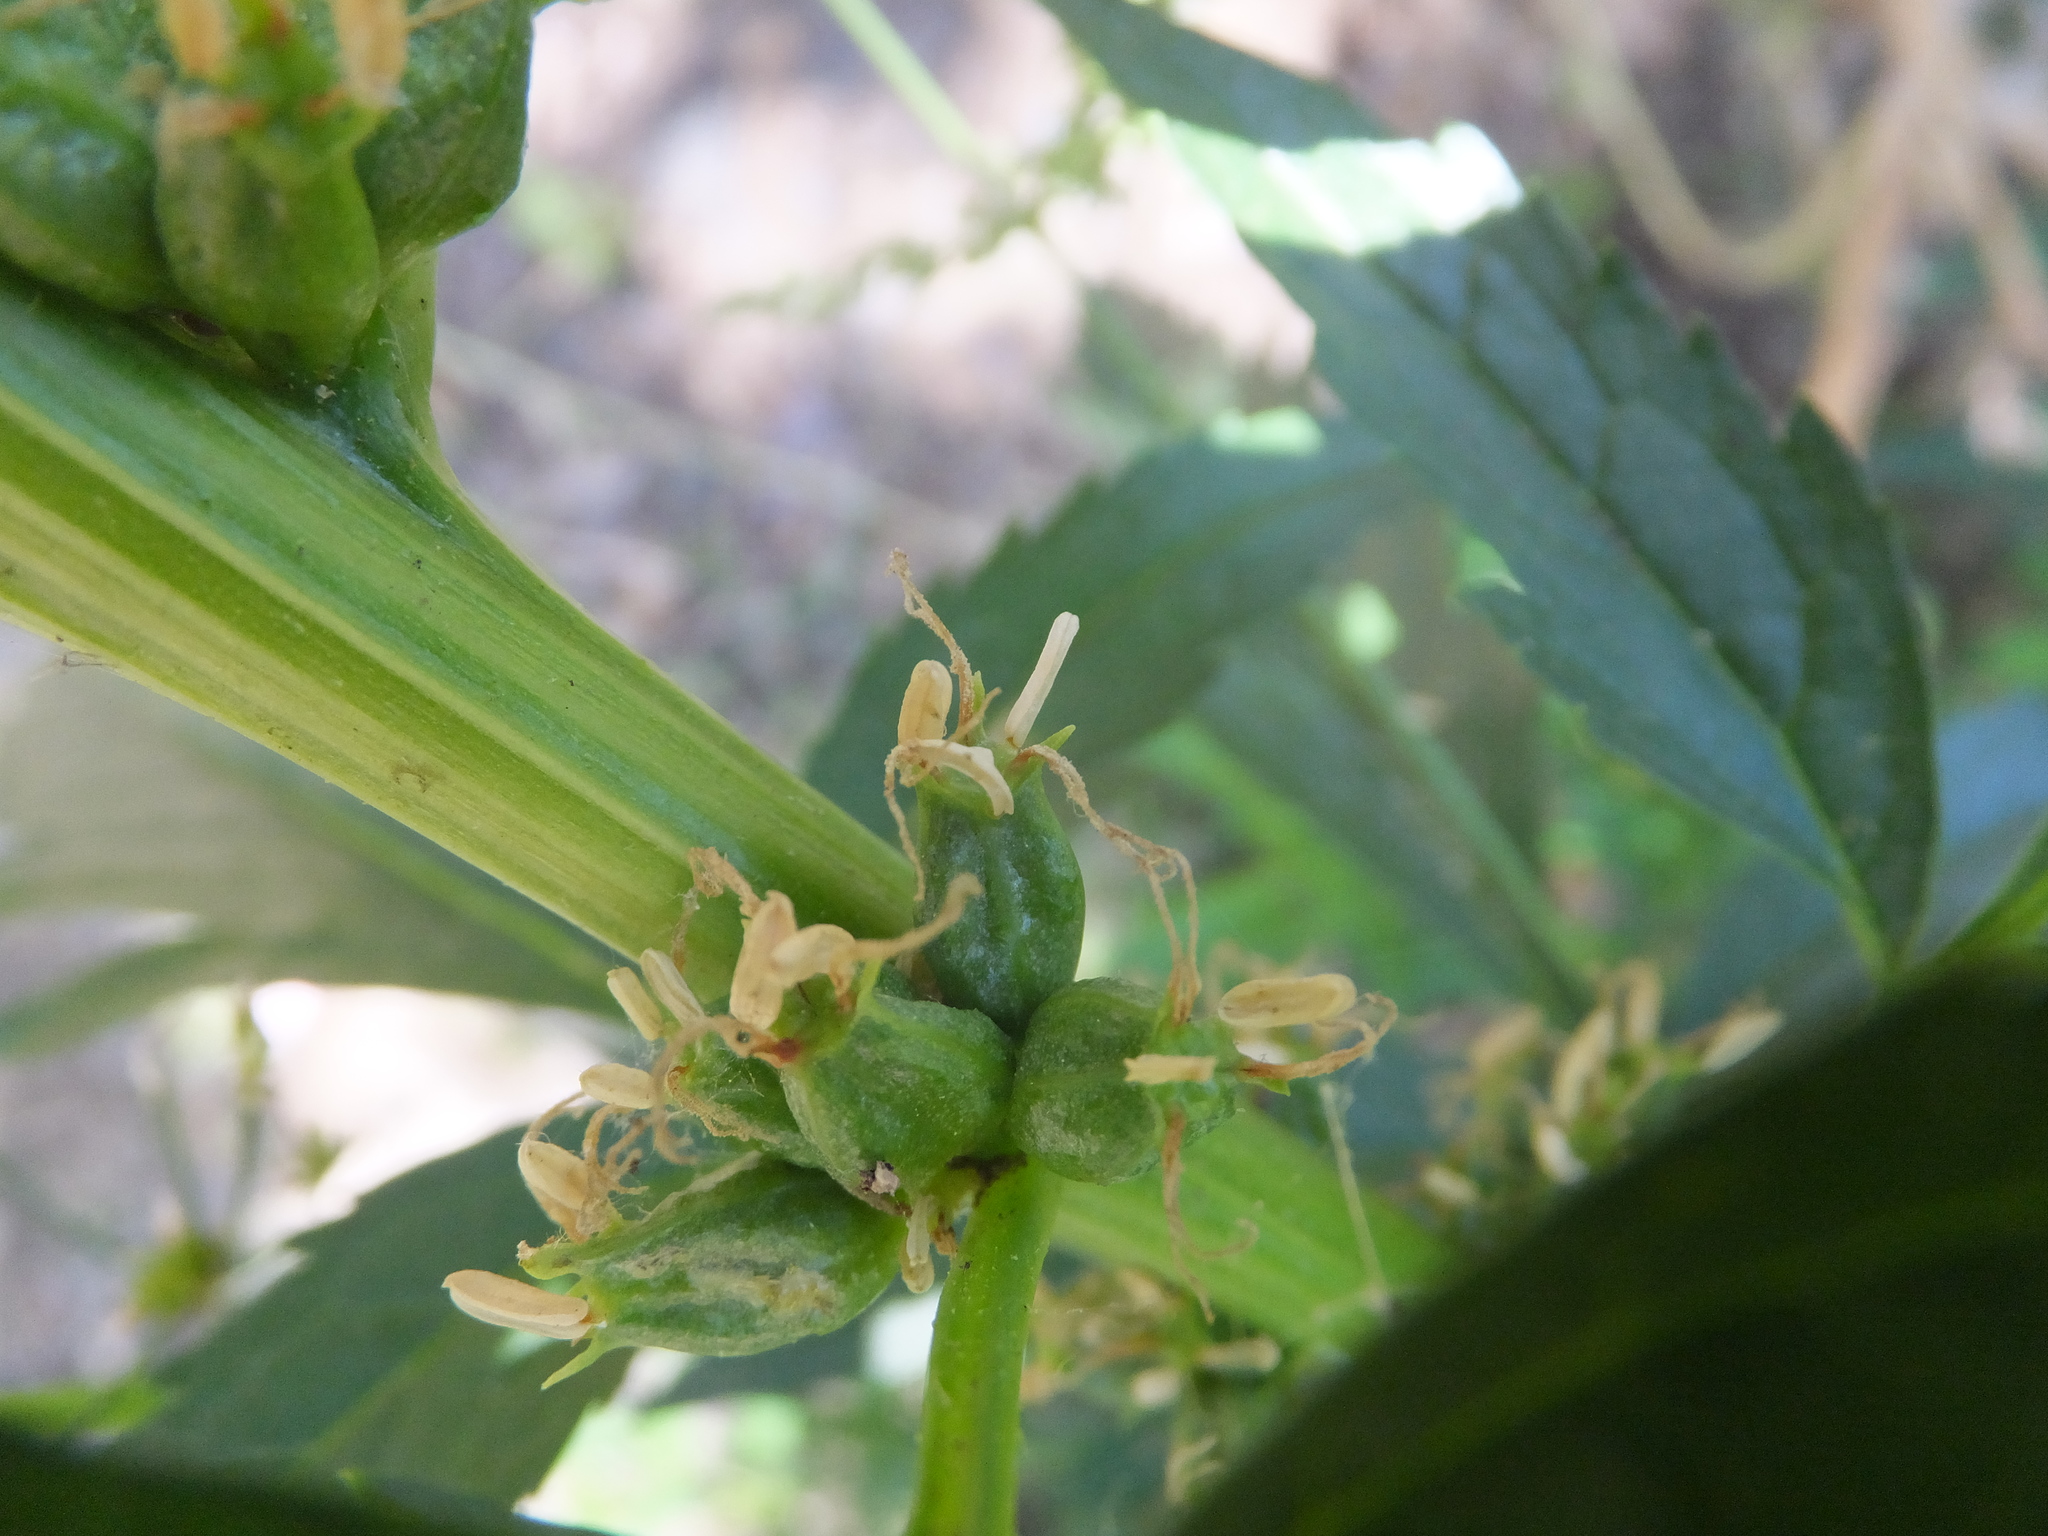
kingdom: Plantae
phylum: Tracheophyta
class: Magnoliopsida
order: Cucurbitales
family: Datiscaceae
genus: Datisca
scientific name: Datisca glomerata
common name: Durango-root
